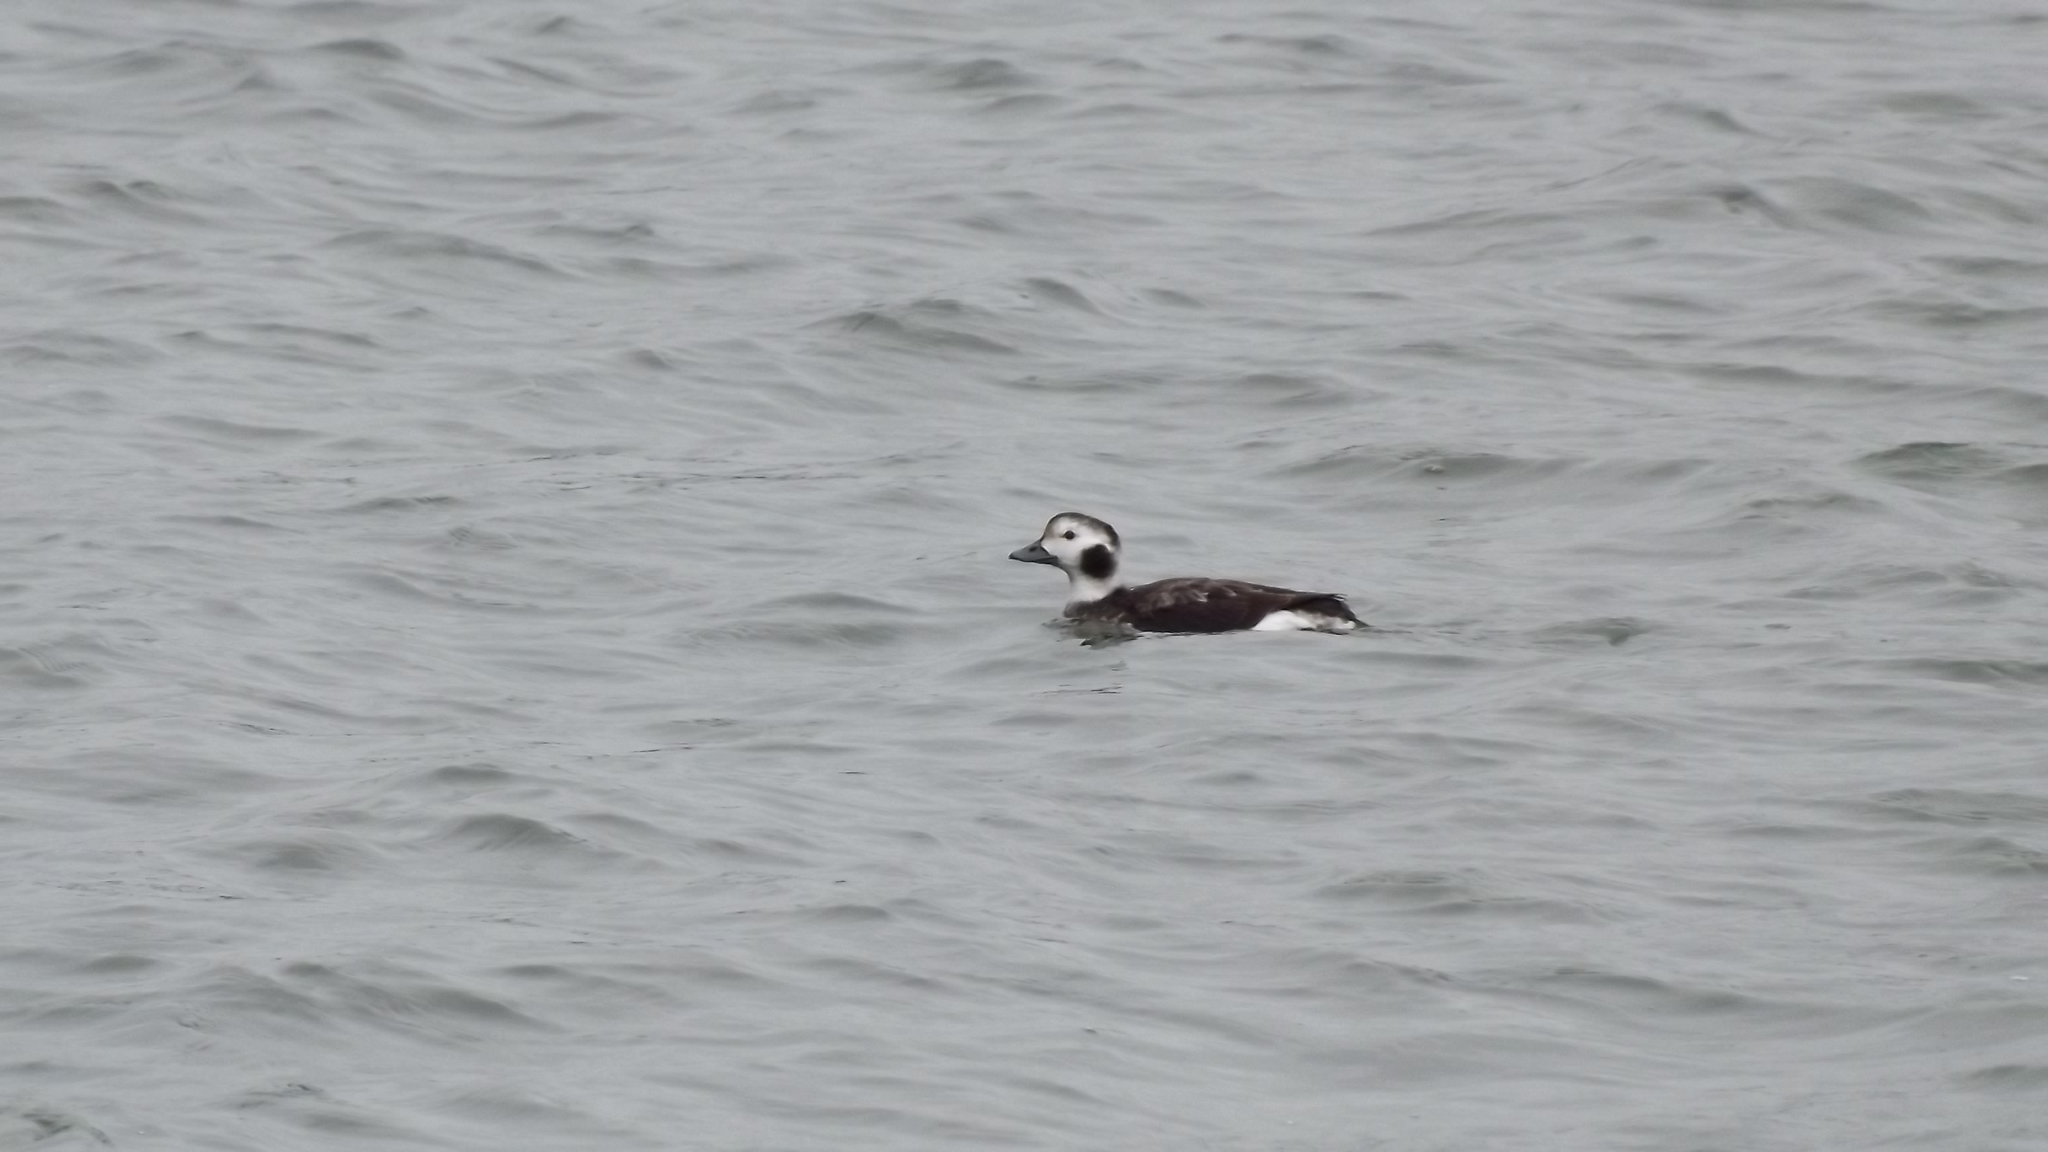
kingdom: Animalia
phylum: Chordata
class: Aves
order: Anseriformes
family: Anatidae
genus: Clangula
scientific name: Clangula hyemalis
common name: Long-tailed duck
